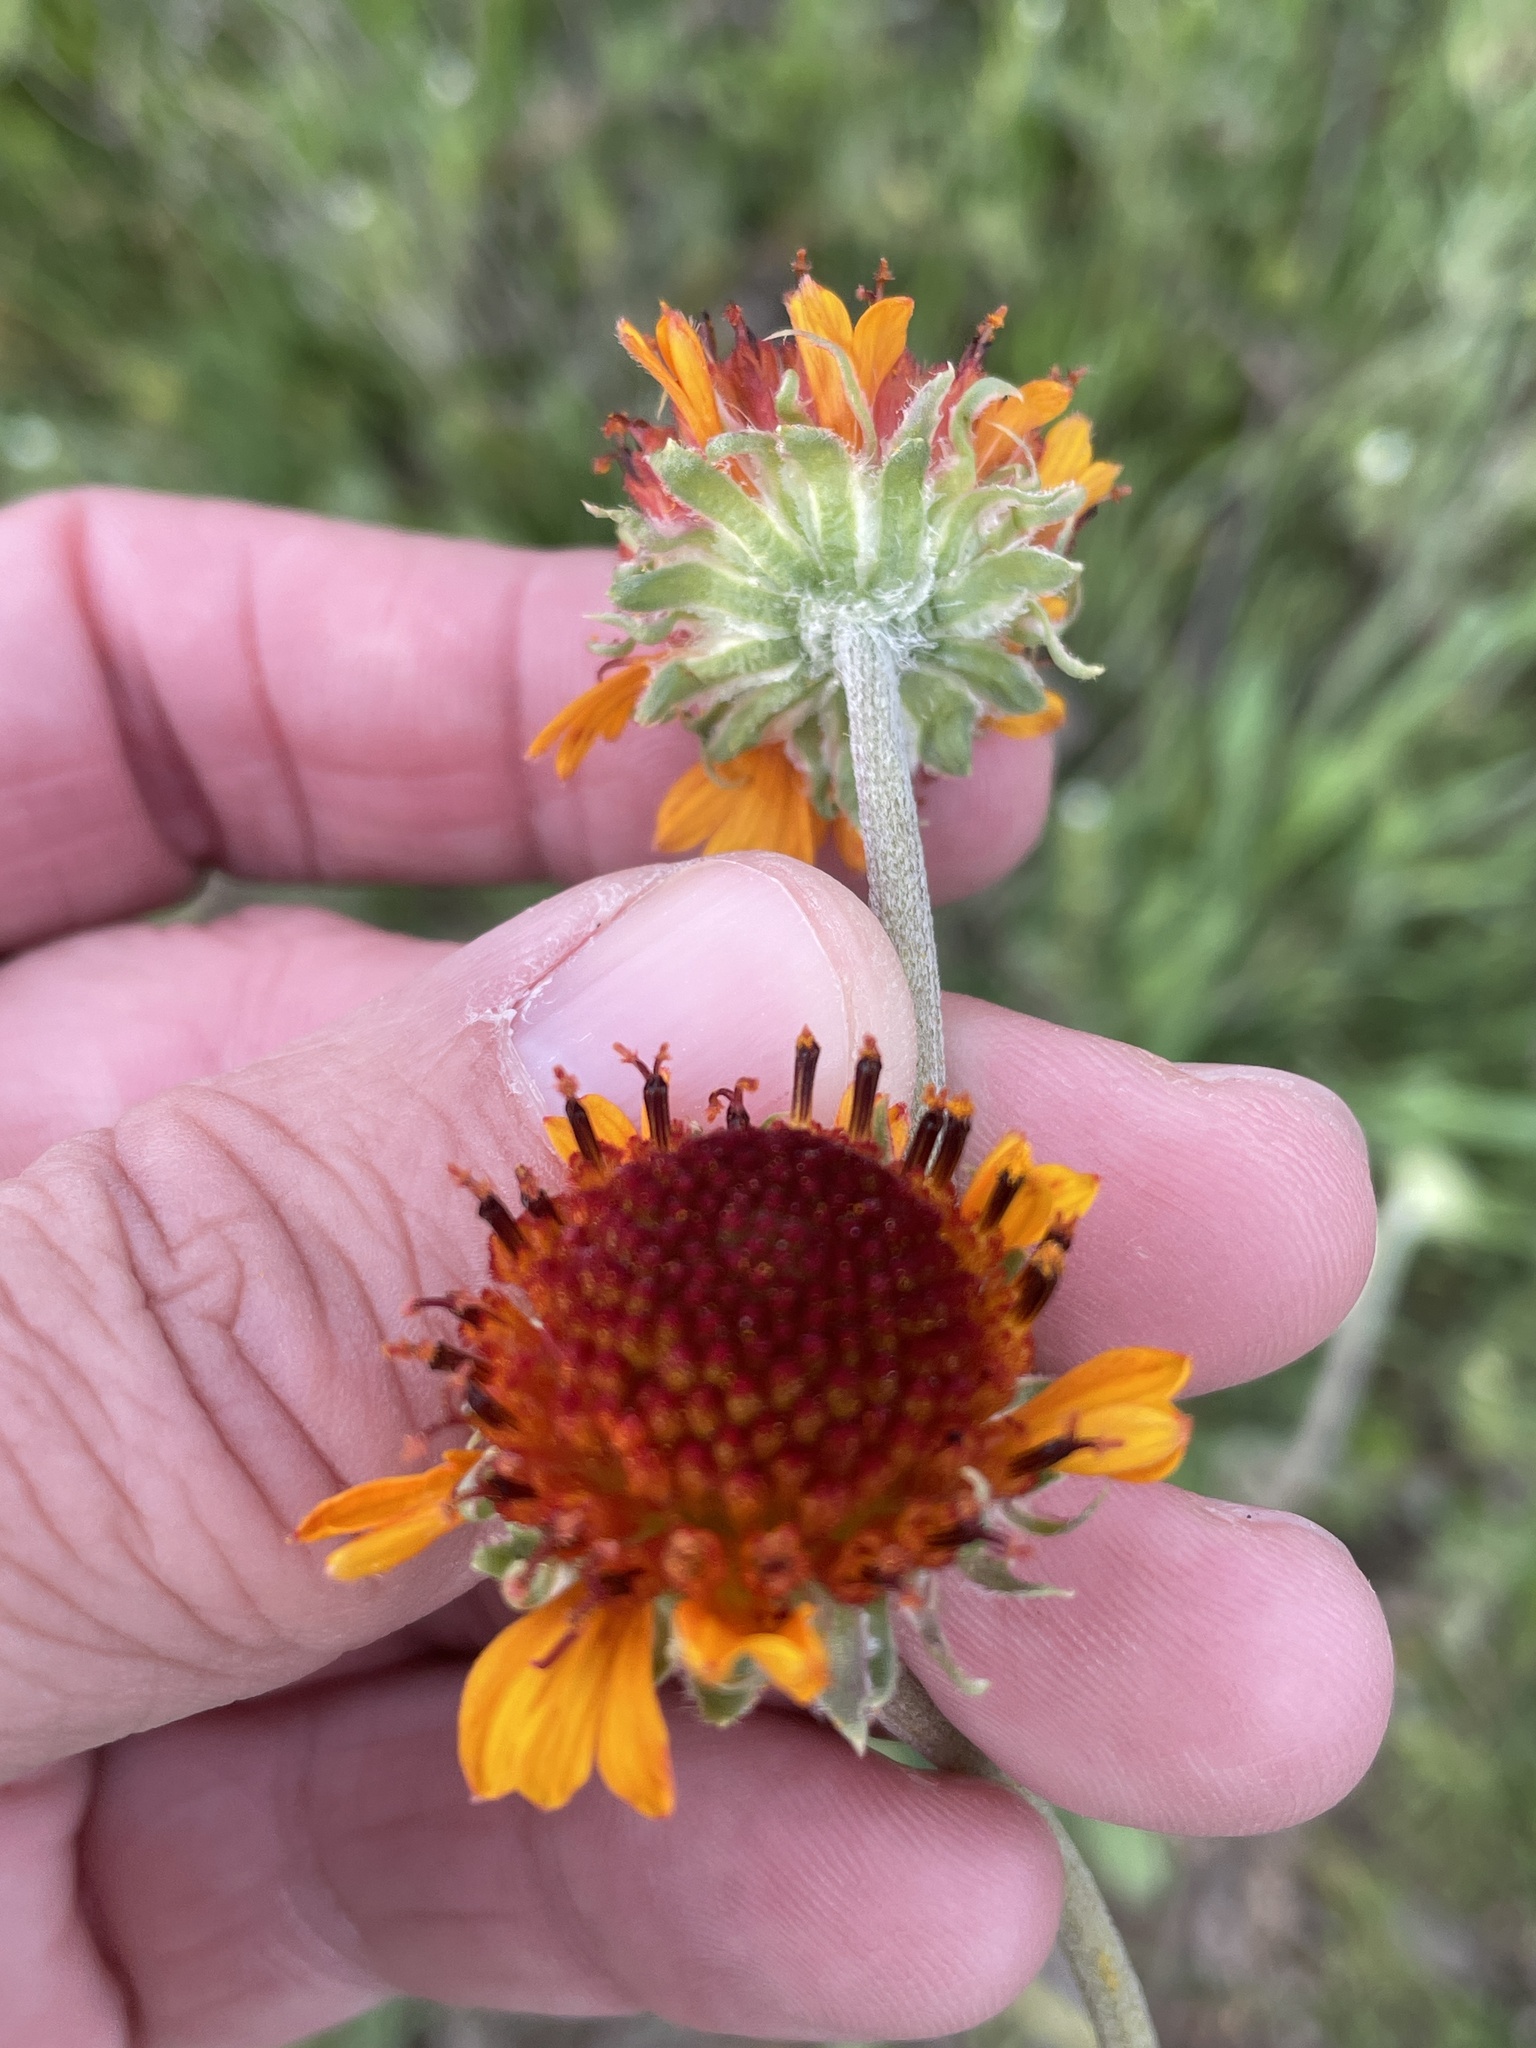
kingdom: Plantae
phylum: Tracheophyta
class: Magnoliopsida
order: Asterales
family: Asteraceae
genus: Gaillardia
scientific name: Gaillardia suavis
